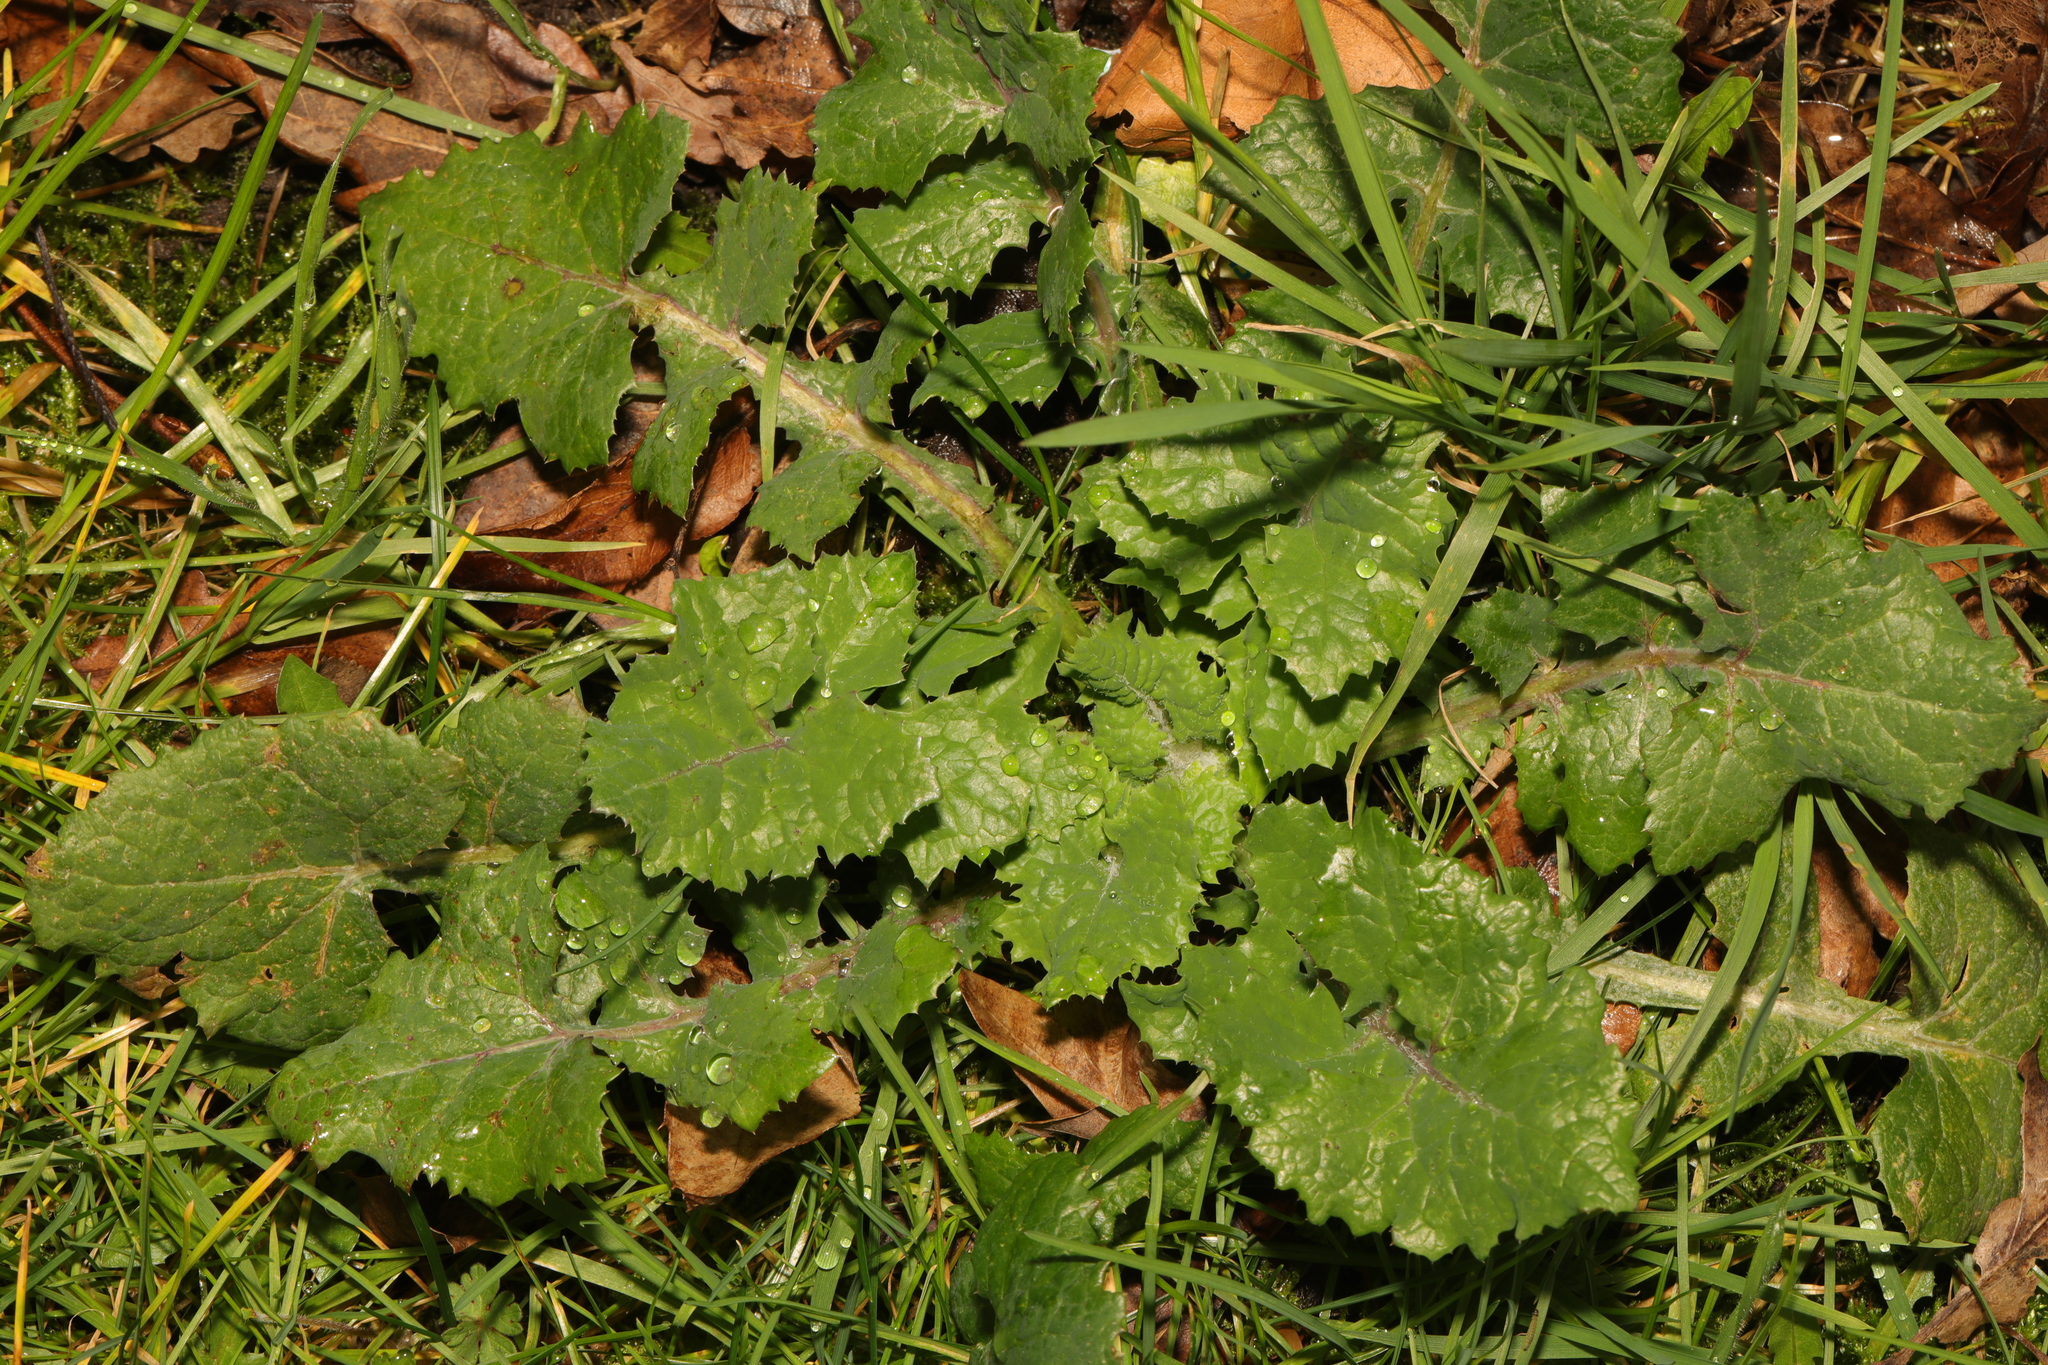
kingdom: Plantae
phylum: Tracheophyta
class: Magnoliopsida
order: Asterales
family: Asteraceae
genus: Sonchus
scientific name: Sonchus oleraceus
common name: Common sowthistle
